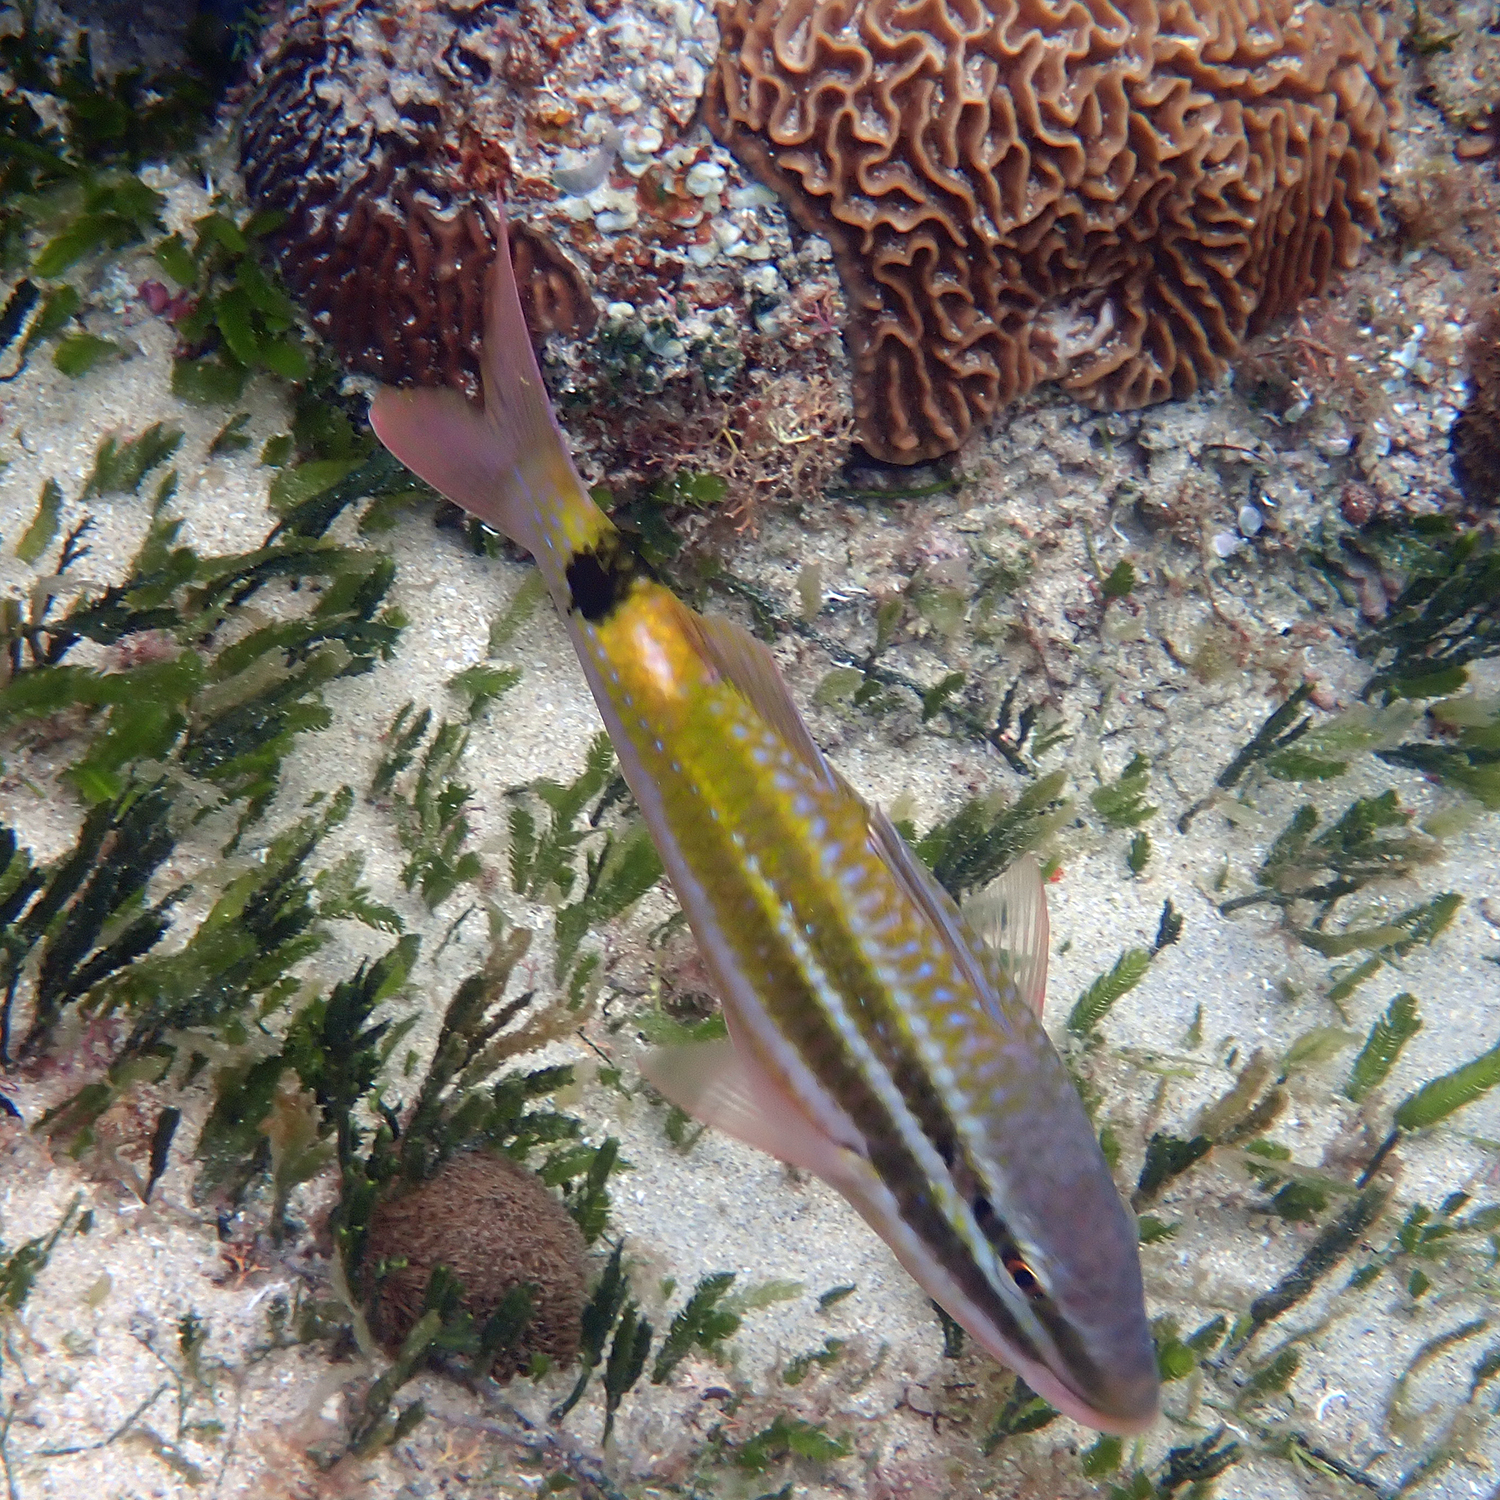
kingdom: Animalia
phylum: Chordata
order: Perciformes
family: Mullidae
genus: Parupeneus
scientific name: Parupeneus spilurus
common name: Blackspot goatfish
